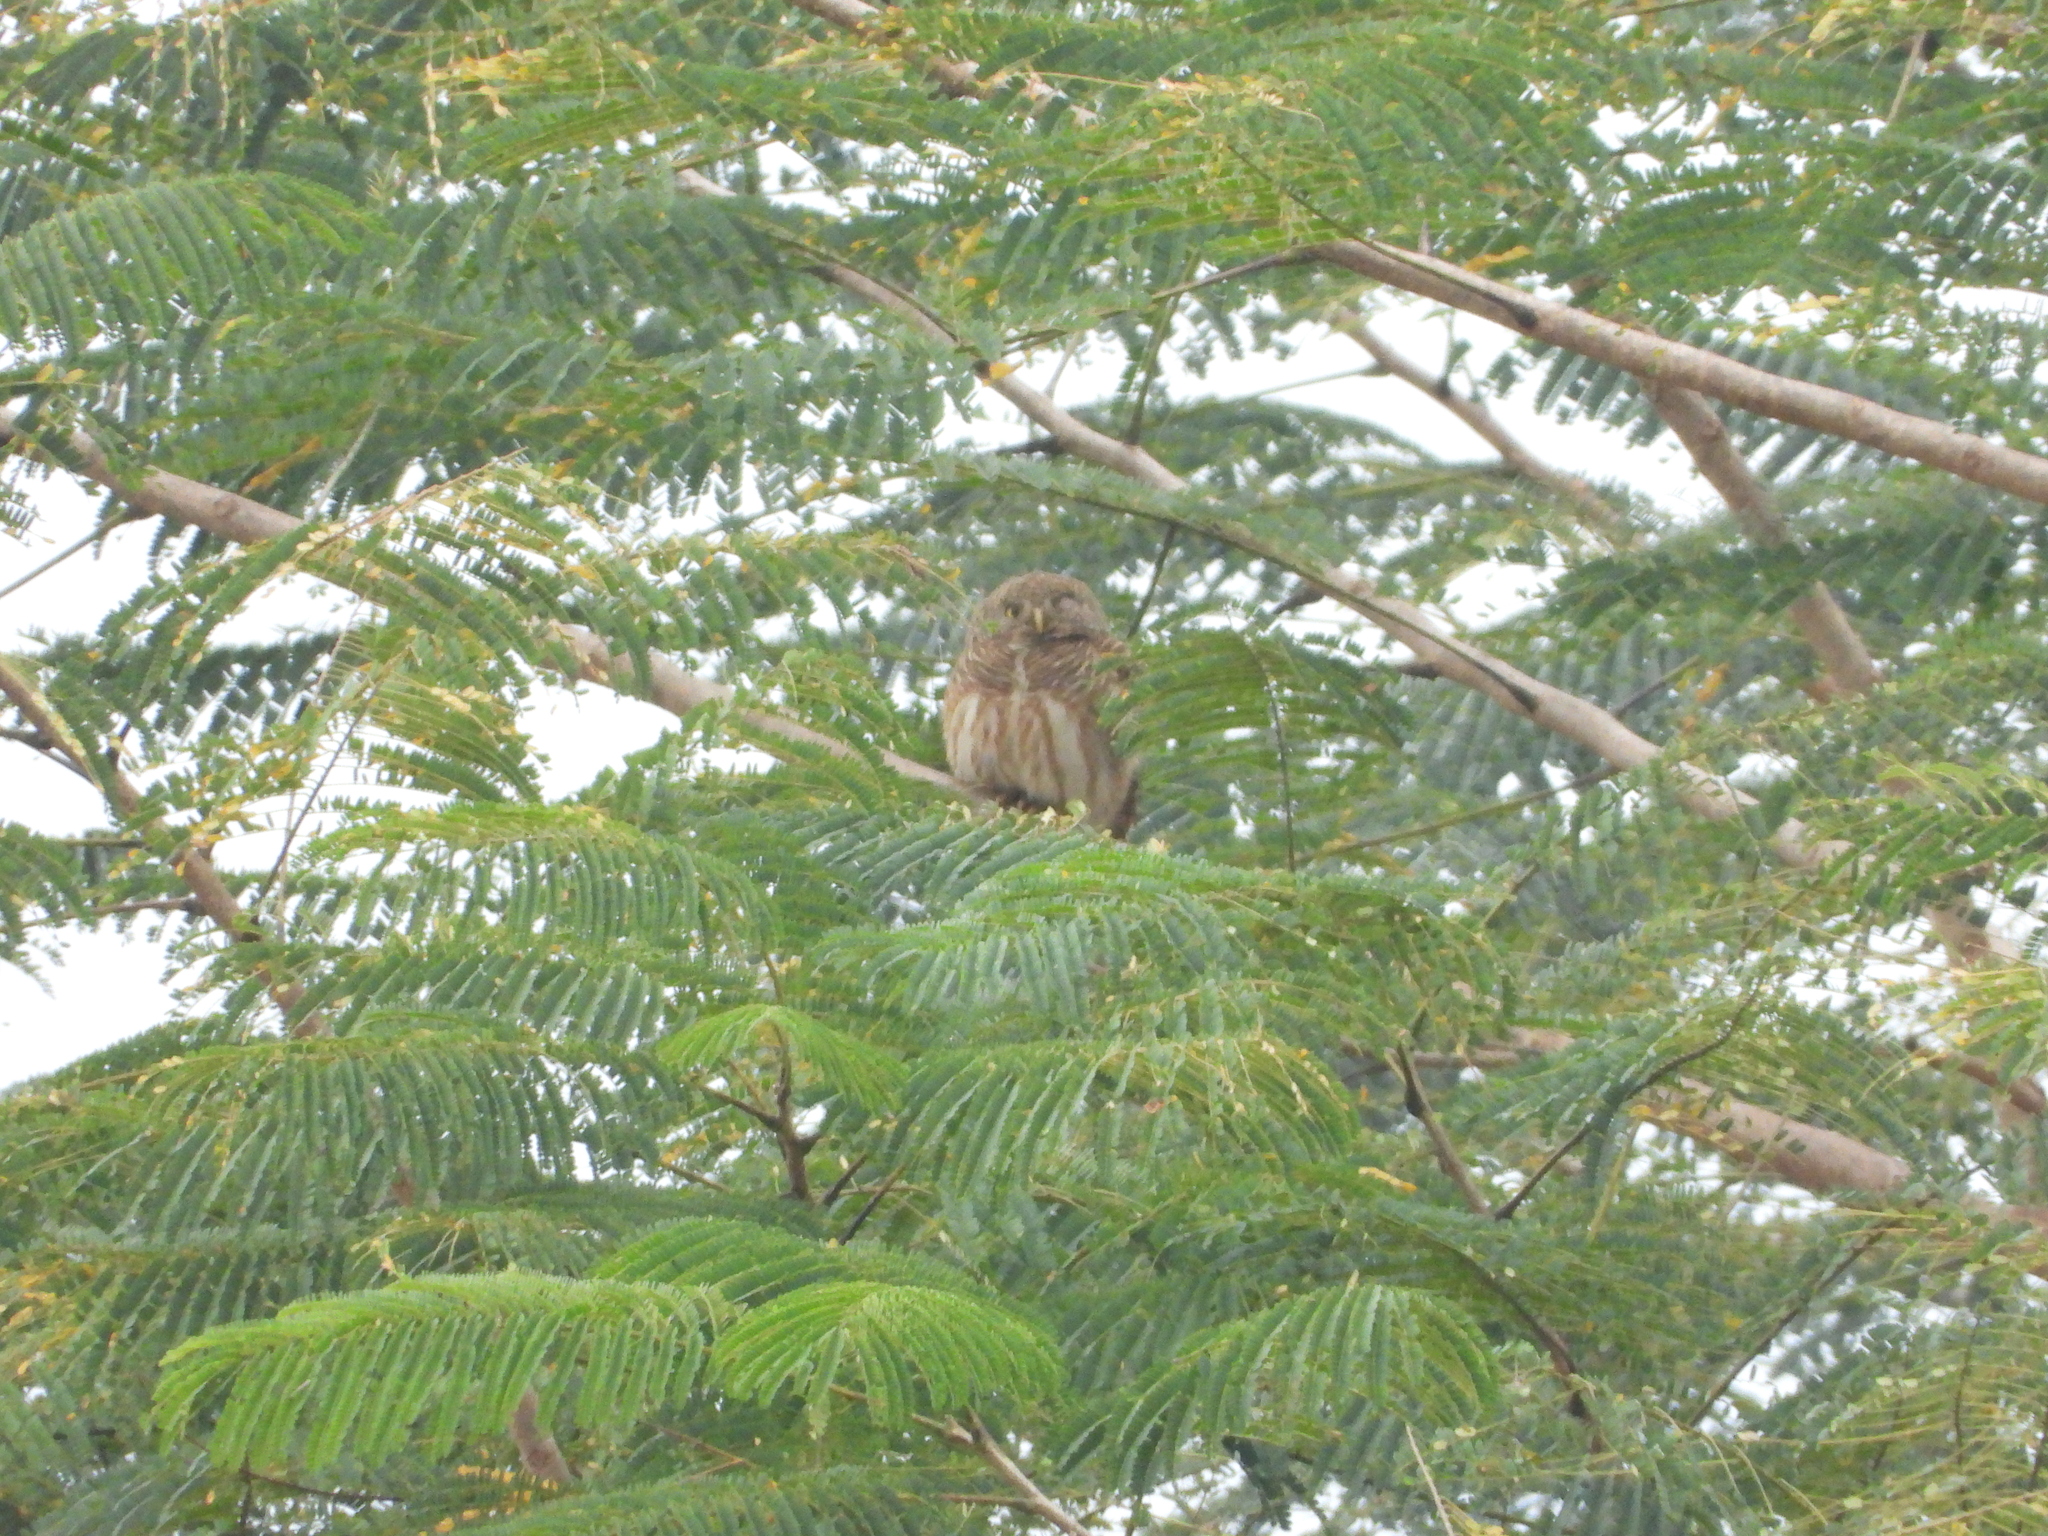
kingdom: Animalia
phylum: Chordata
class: Aves
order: Strigiformes
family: Strigidae
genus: Glaucidium
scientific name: Glaucidium cuculoides
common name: Asian barred owlet
